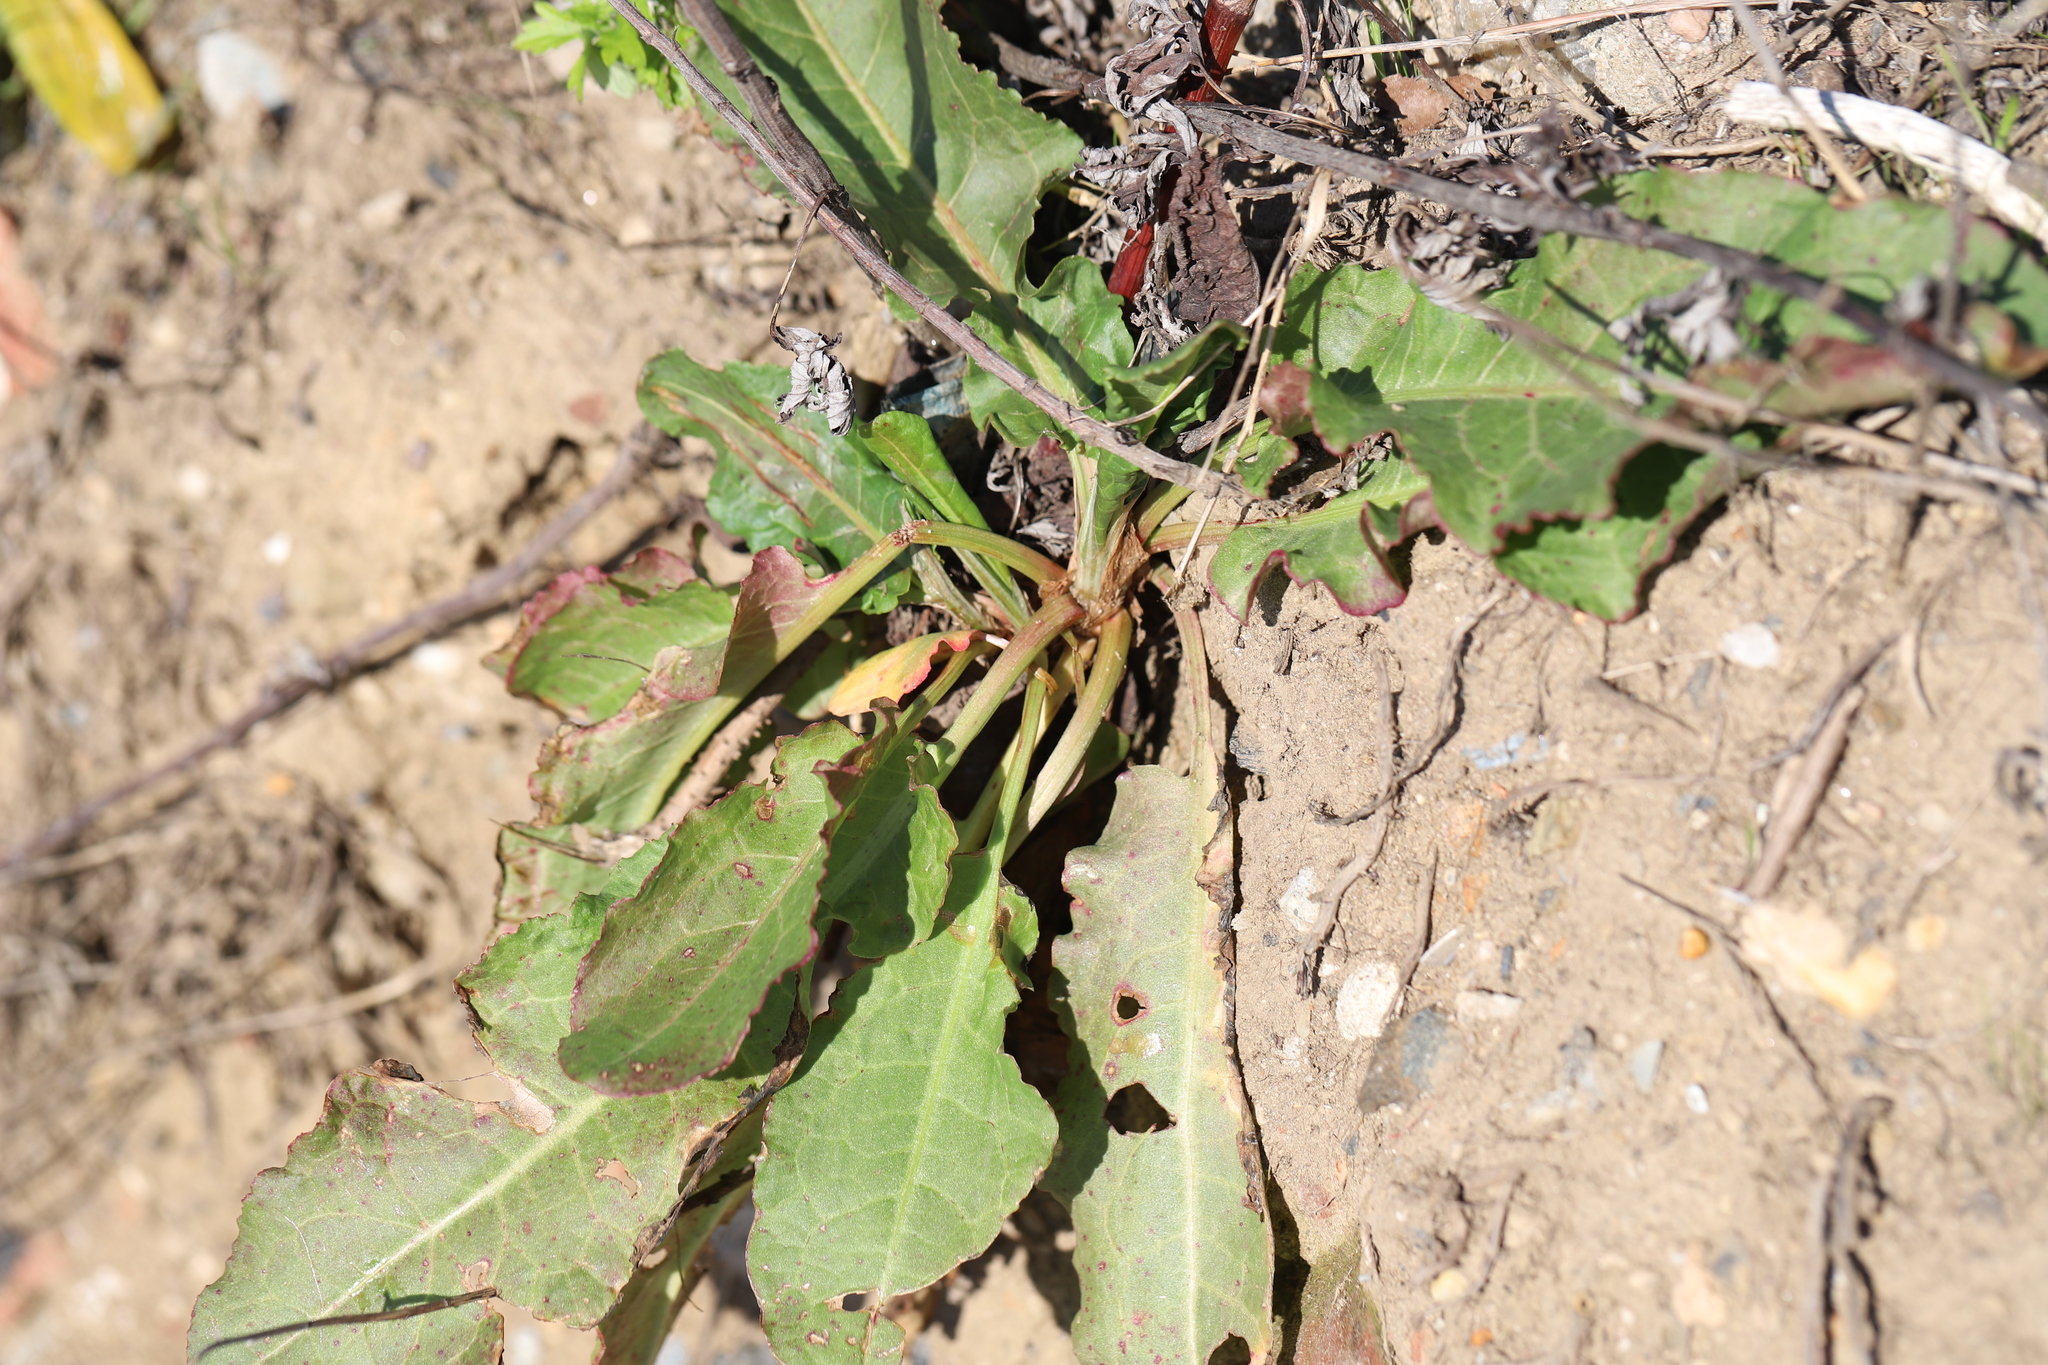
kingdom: Plantae
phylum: Tracheophyta
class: Magnoliopsida
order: Caryophyllales
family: Polygonaceae
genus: Rumex
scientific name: Rumex crispus
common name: Curled dock
